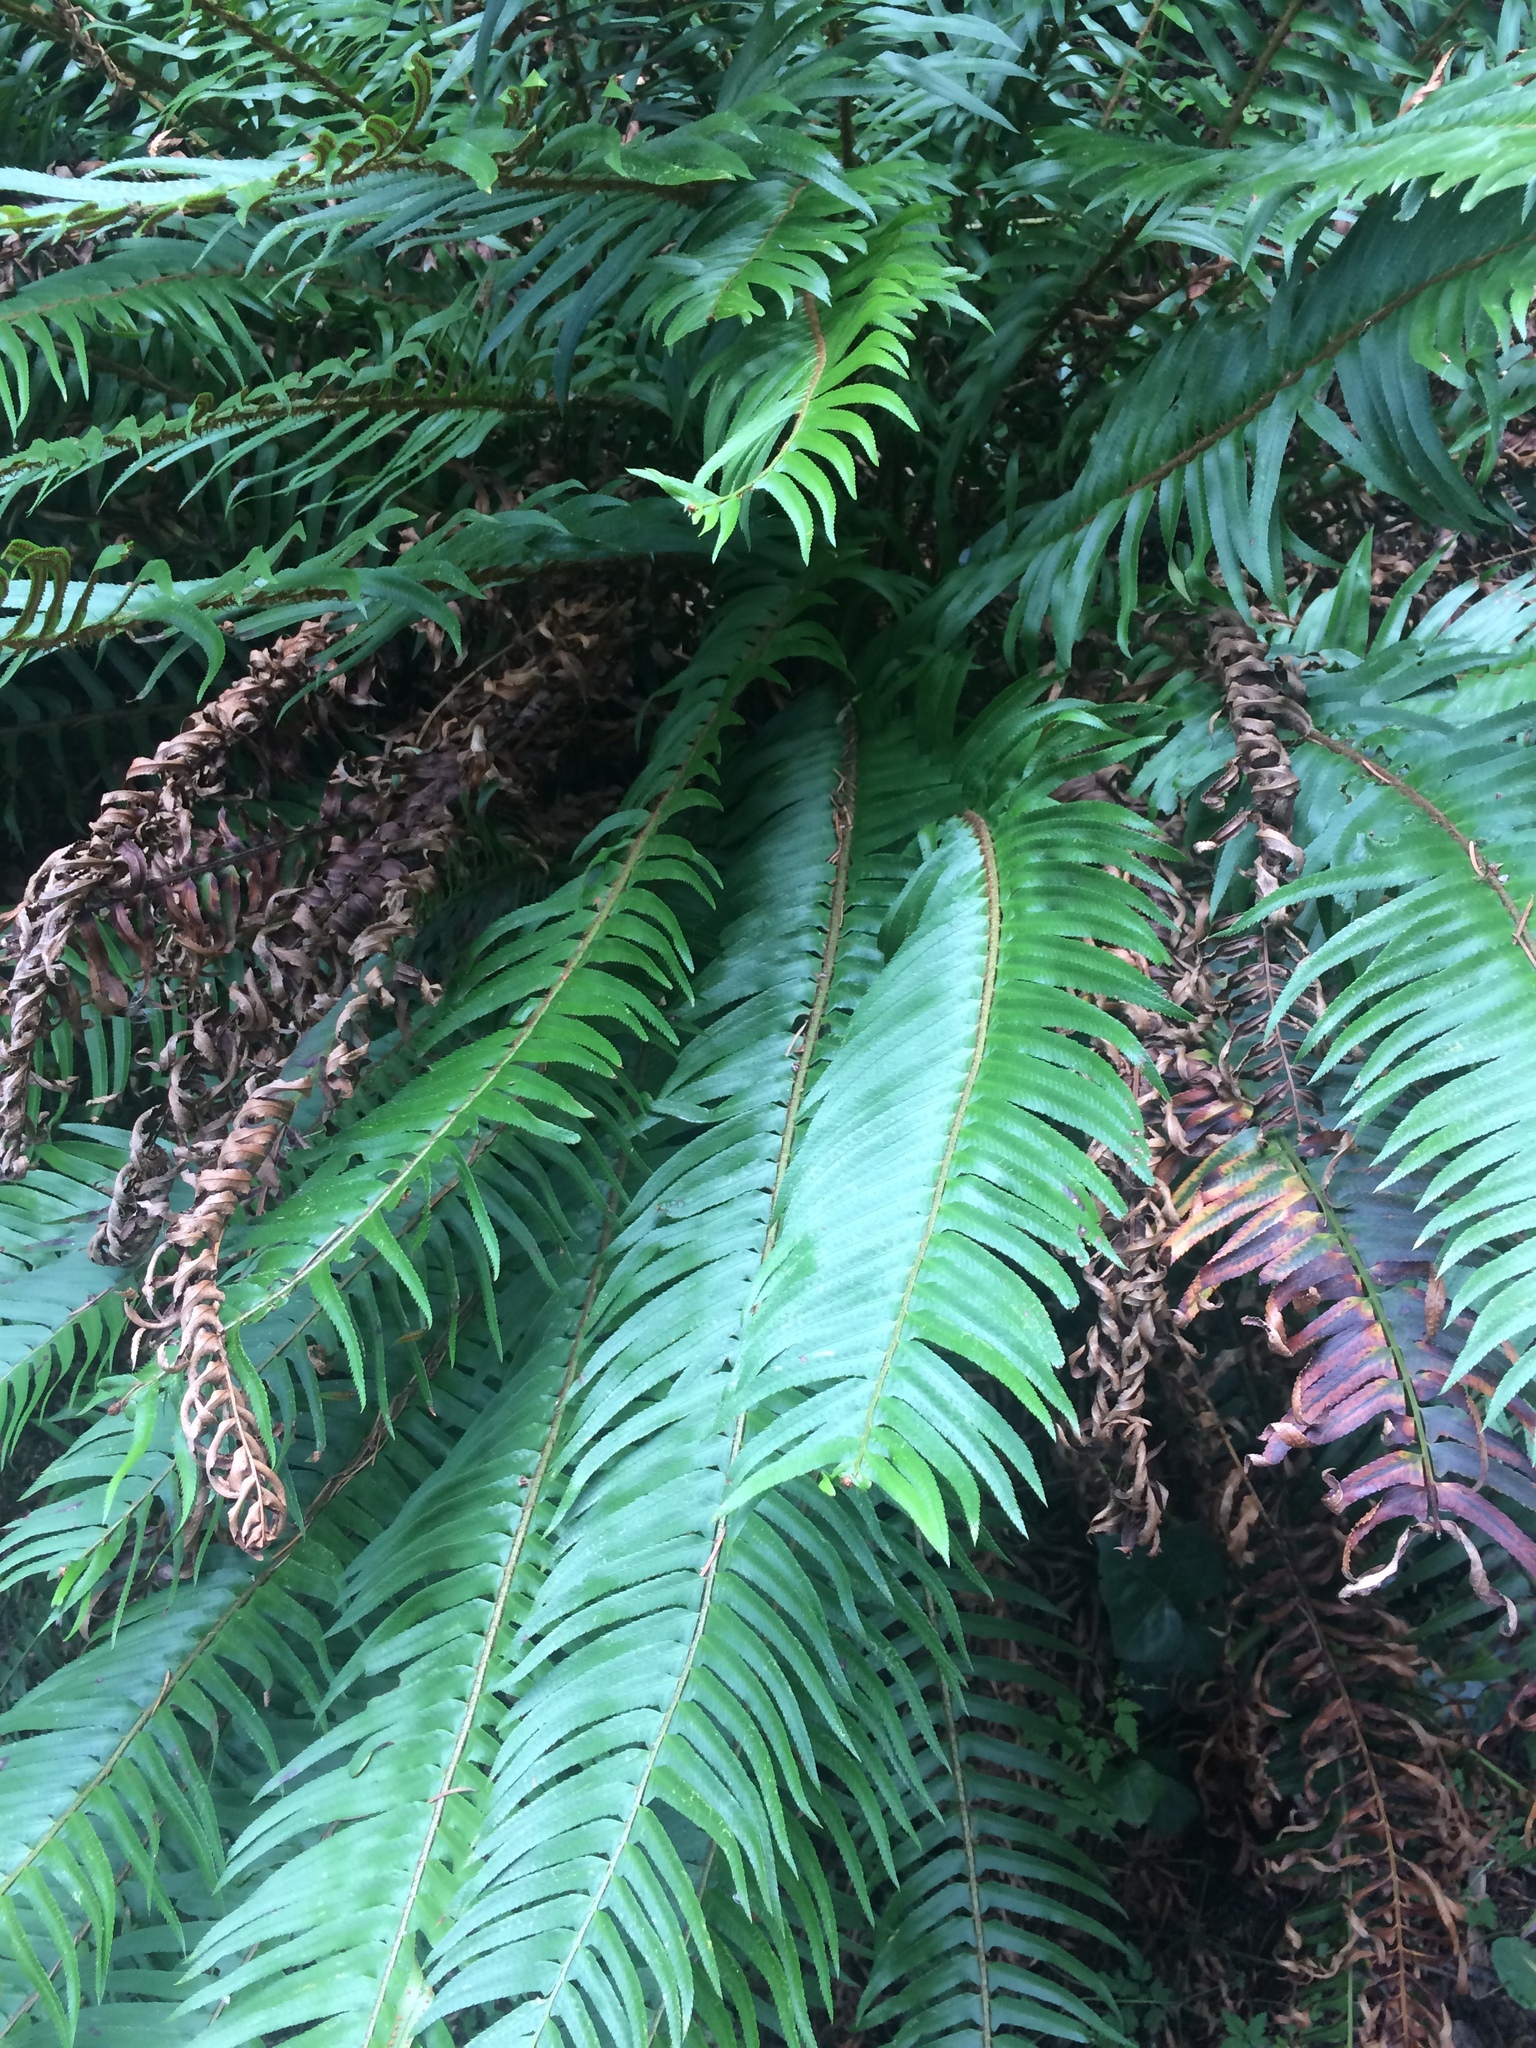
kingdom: Plantae
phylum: Tracheophyta
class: Polypodiopsida
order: Polypodiales
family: Dryopteridaceae
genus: Polystichum
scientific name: Polystichum munitum
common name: Western sword-fern
